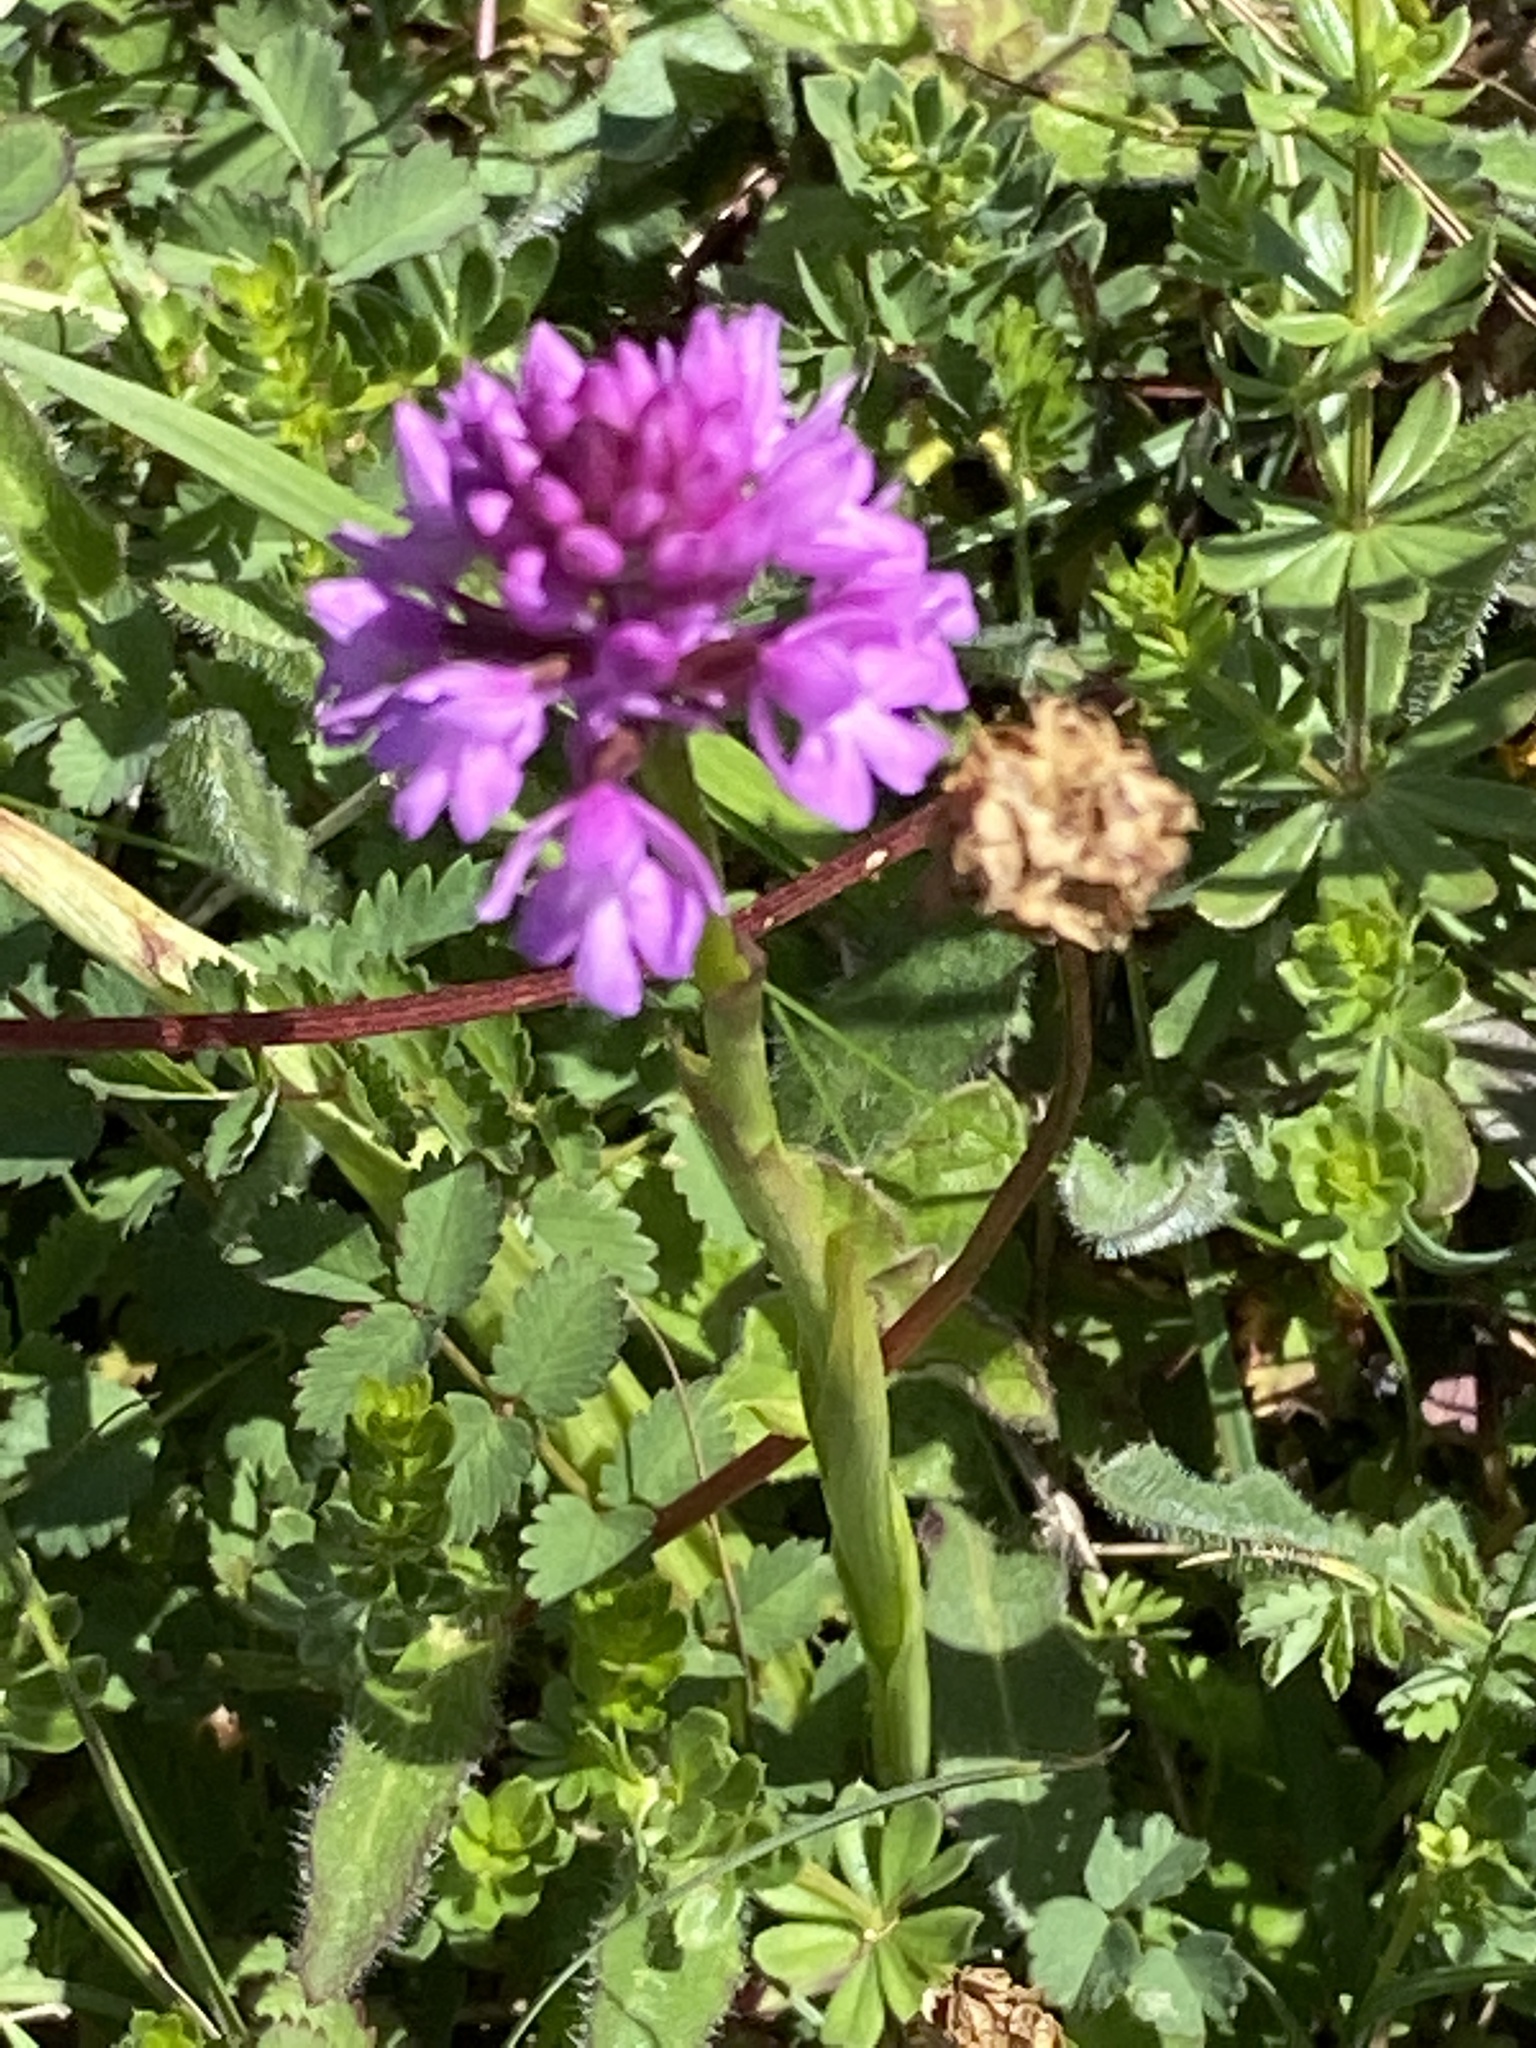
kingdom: Plantae
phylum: Tracheophyta
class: Liliopsida
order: Asparagales
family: Orchidaceae
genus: Anacamptis
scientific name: Anacamptis pyramidalis
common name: Pyramidal orchid
